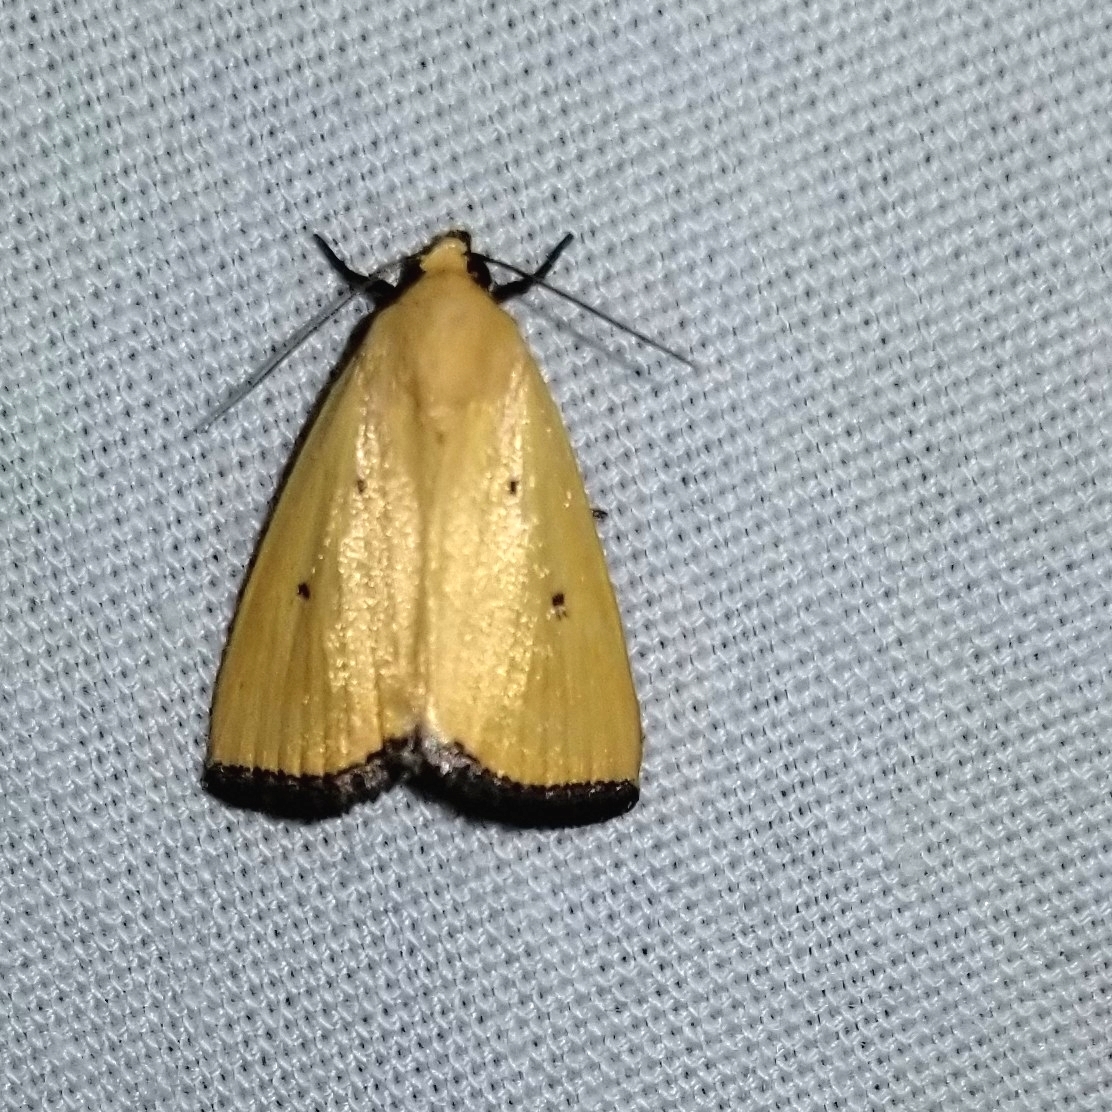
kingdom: Animalia
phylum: Arthropoda
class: Insecta
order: Lepidoptera
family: Noctuidae
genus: Marimatha
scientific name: Marimatha nigrofimbria
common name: Black-bordered lemon moth
